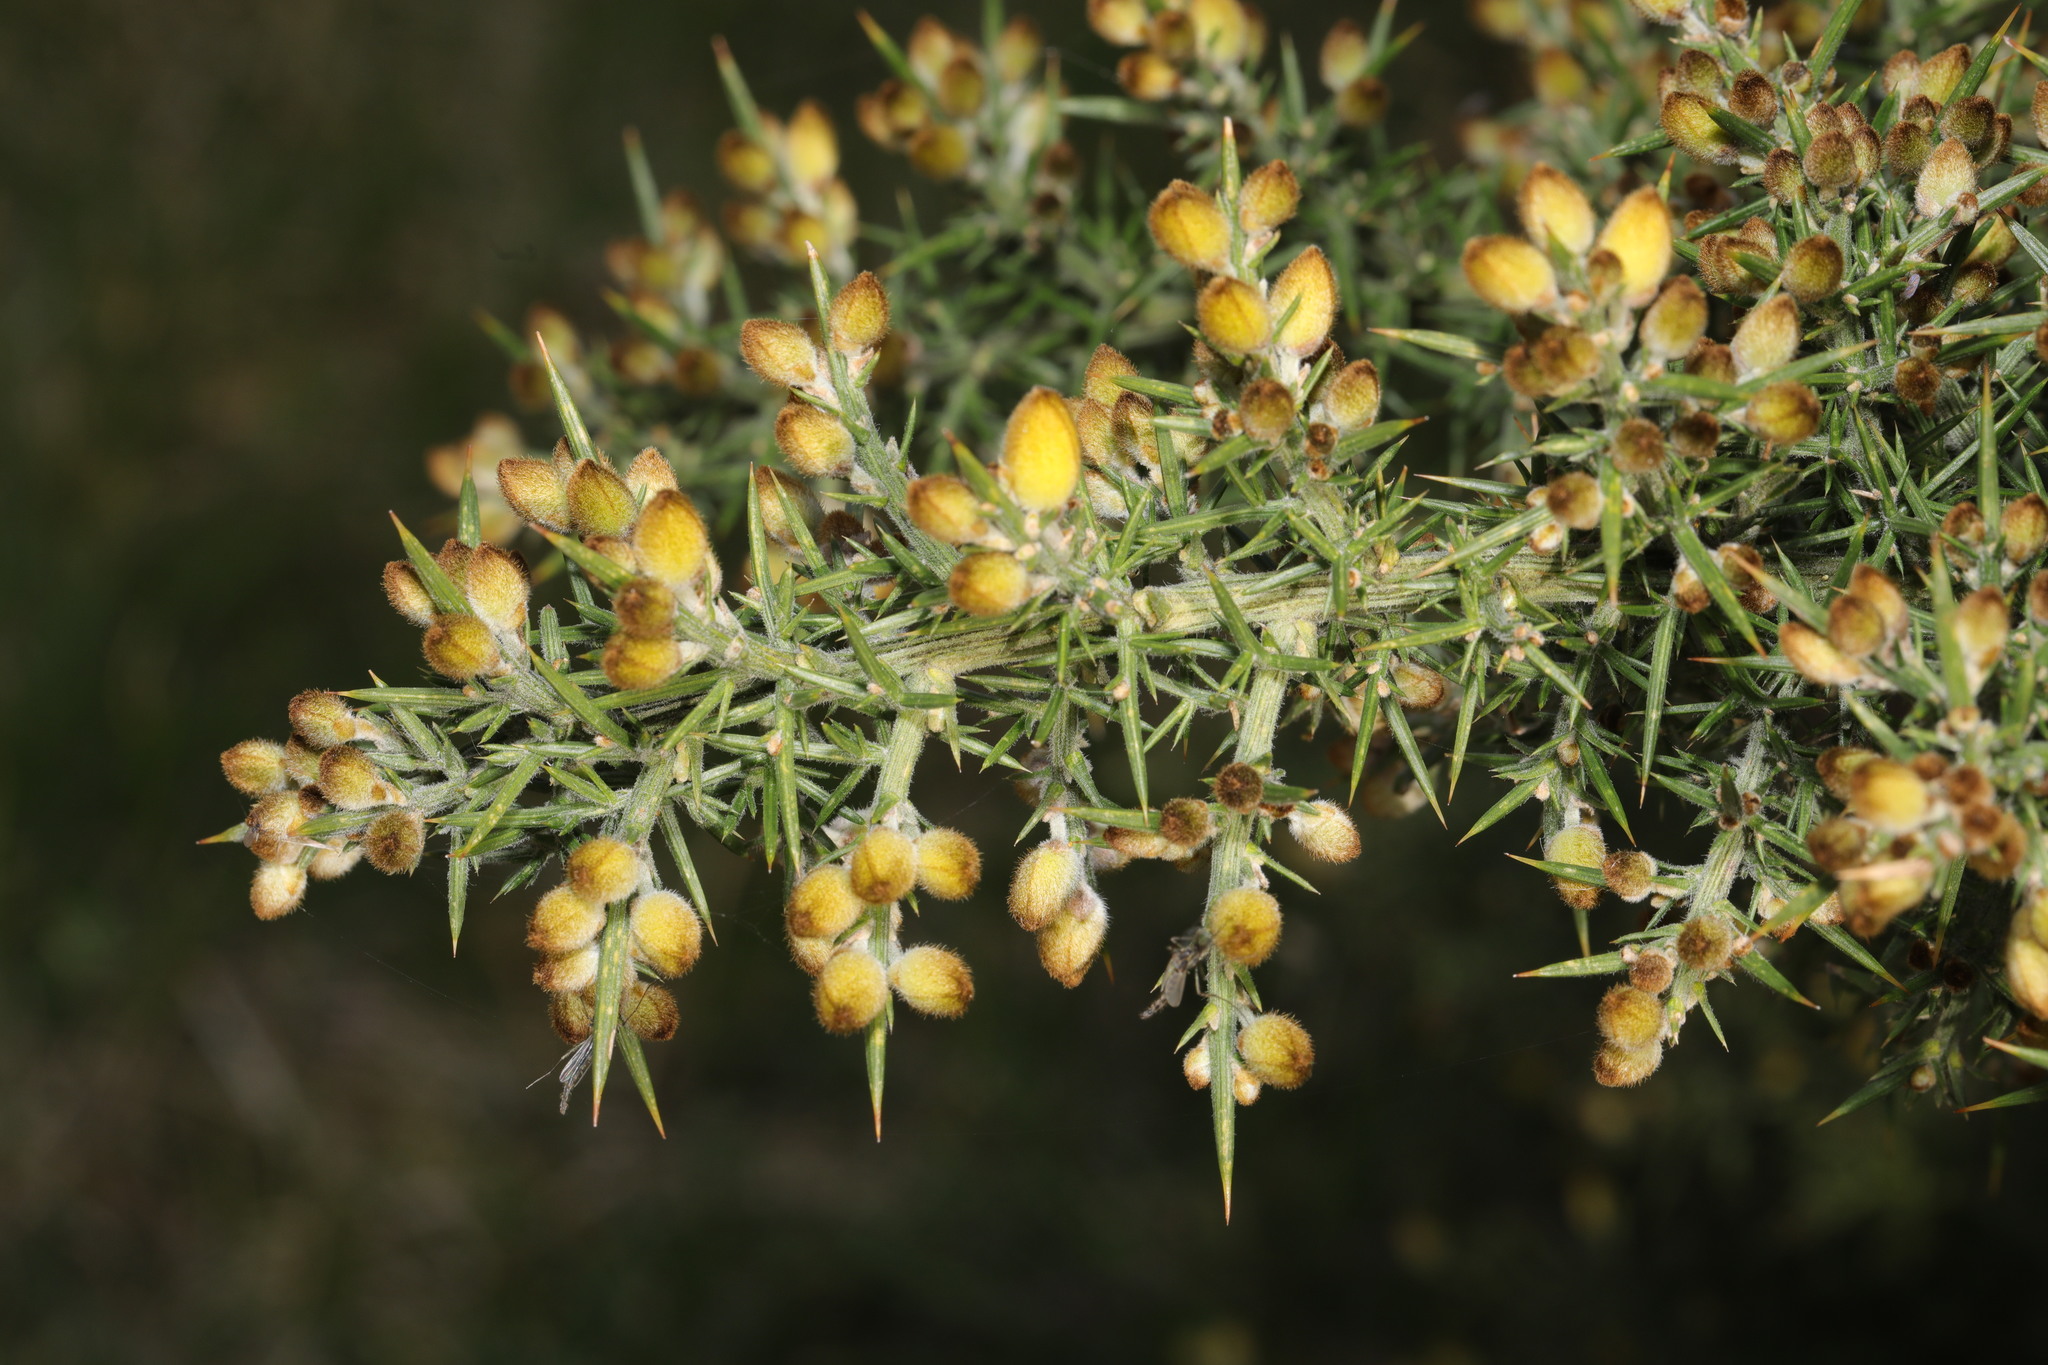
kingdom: Plantae
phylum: Tracheophyta
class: Magnoliopsida
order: Fabales
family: Fabaceae
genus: Ulex
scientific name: Ulex europaeus
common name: Common gorse
